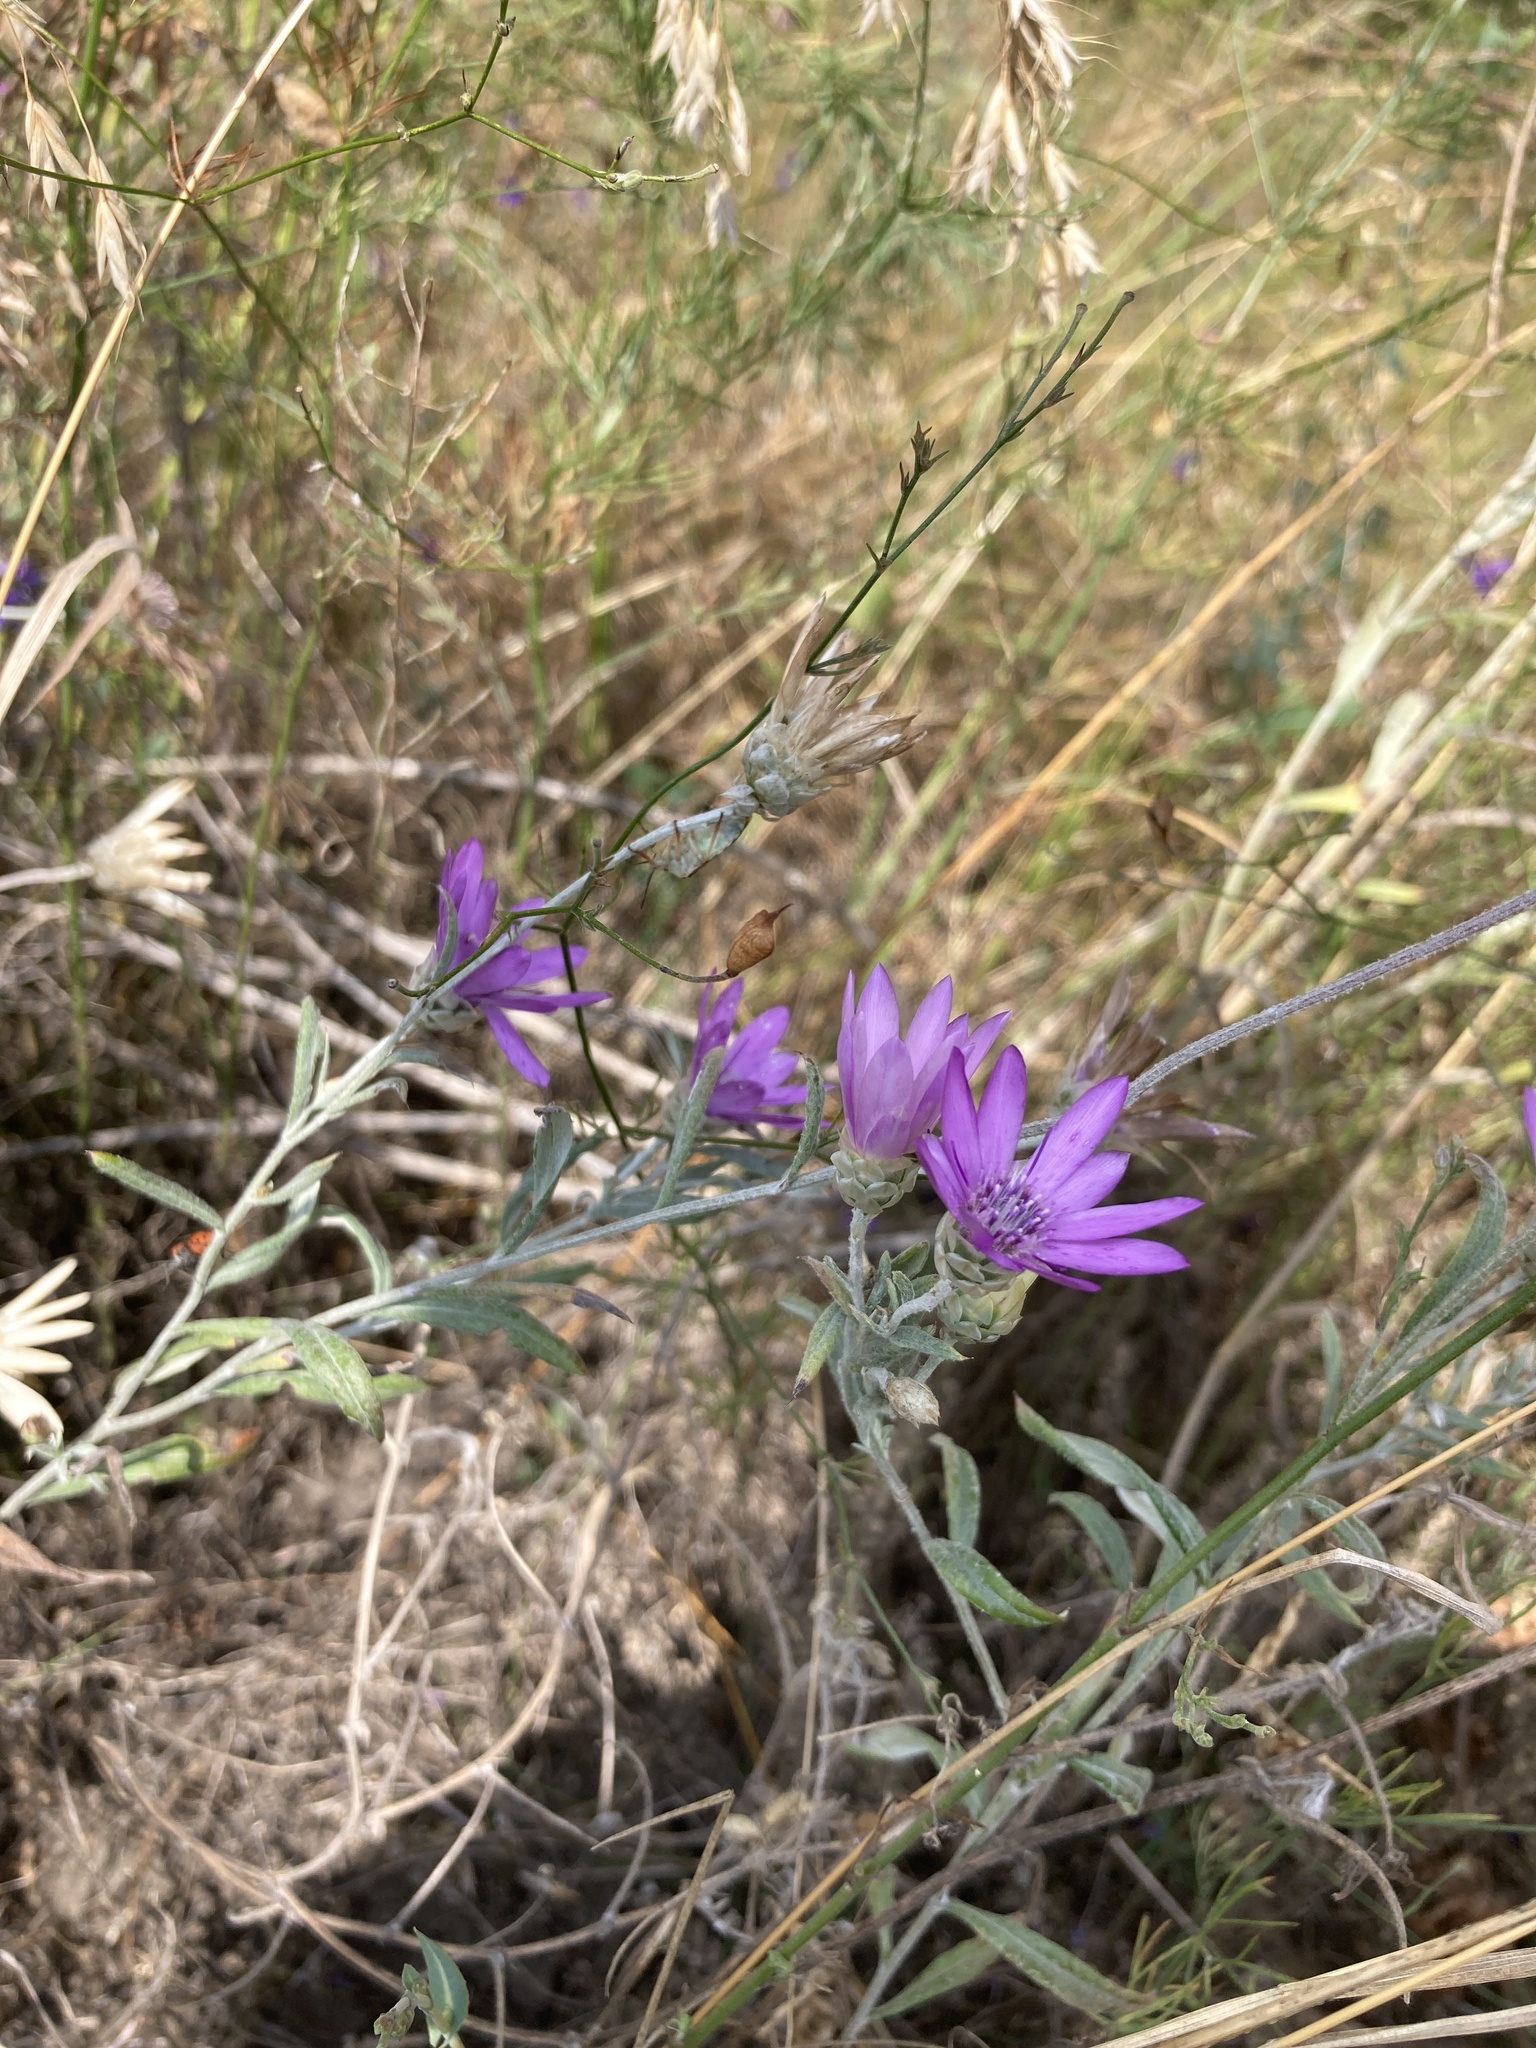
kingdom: Plantae
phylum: Tracheophyta
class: Magnoliopsida
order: Asterales
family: Asteraceae
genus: Xeranthemum
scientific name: Xeranthemum annuum
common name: Immortelle
